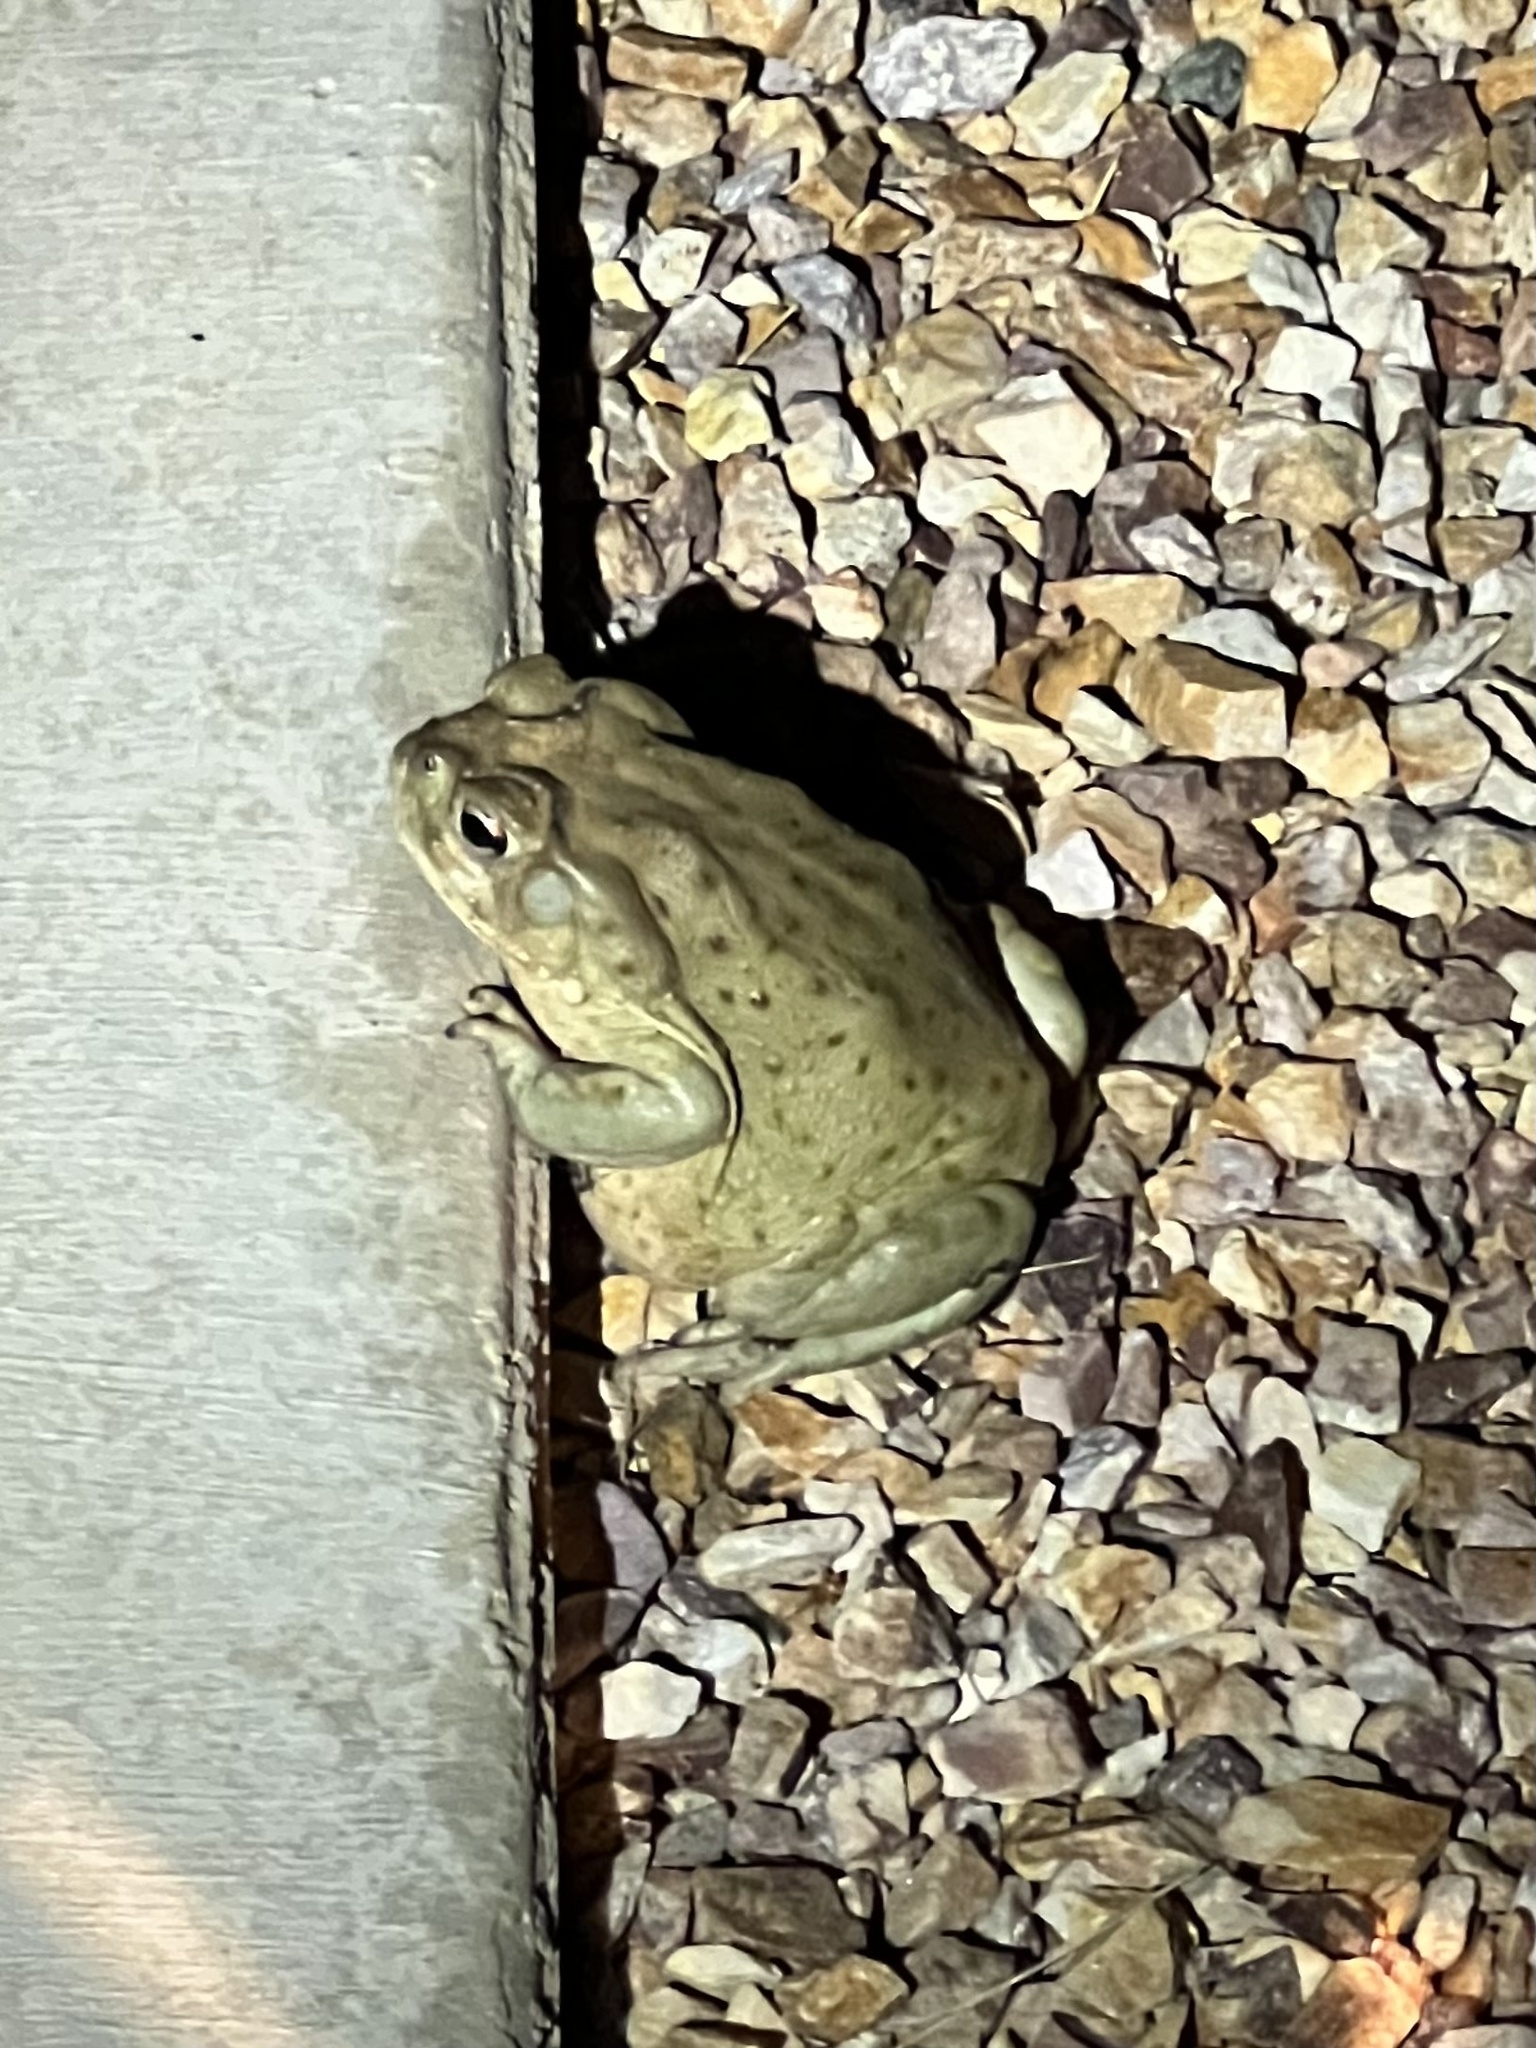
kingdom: Animalia
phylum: Chordata
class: Amphibia
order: Anura
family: Bufonidae
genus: Incilius
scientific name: Incilius alvarius
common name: Sonoran desert toad
